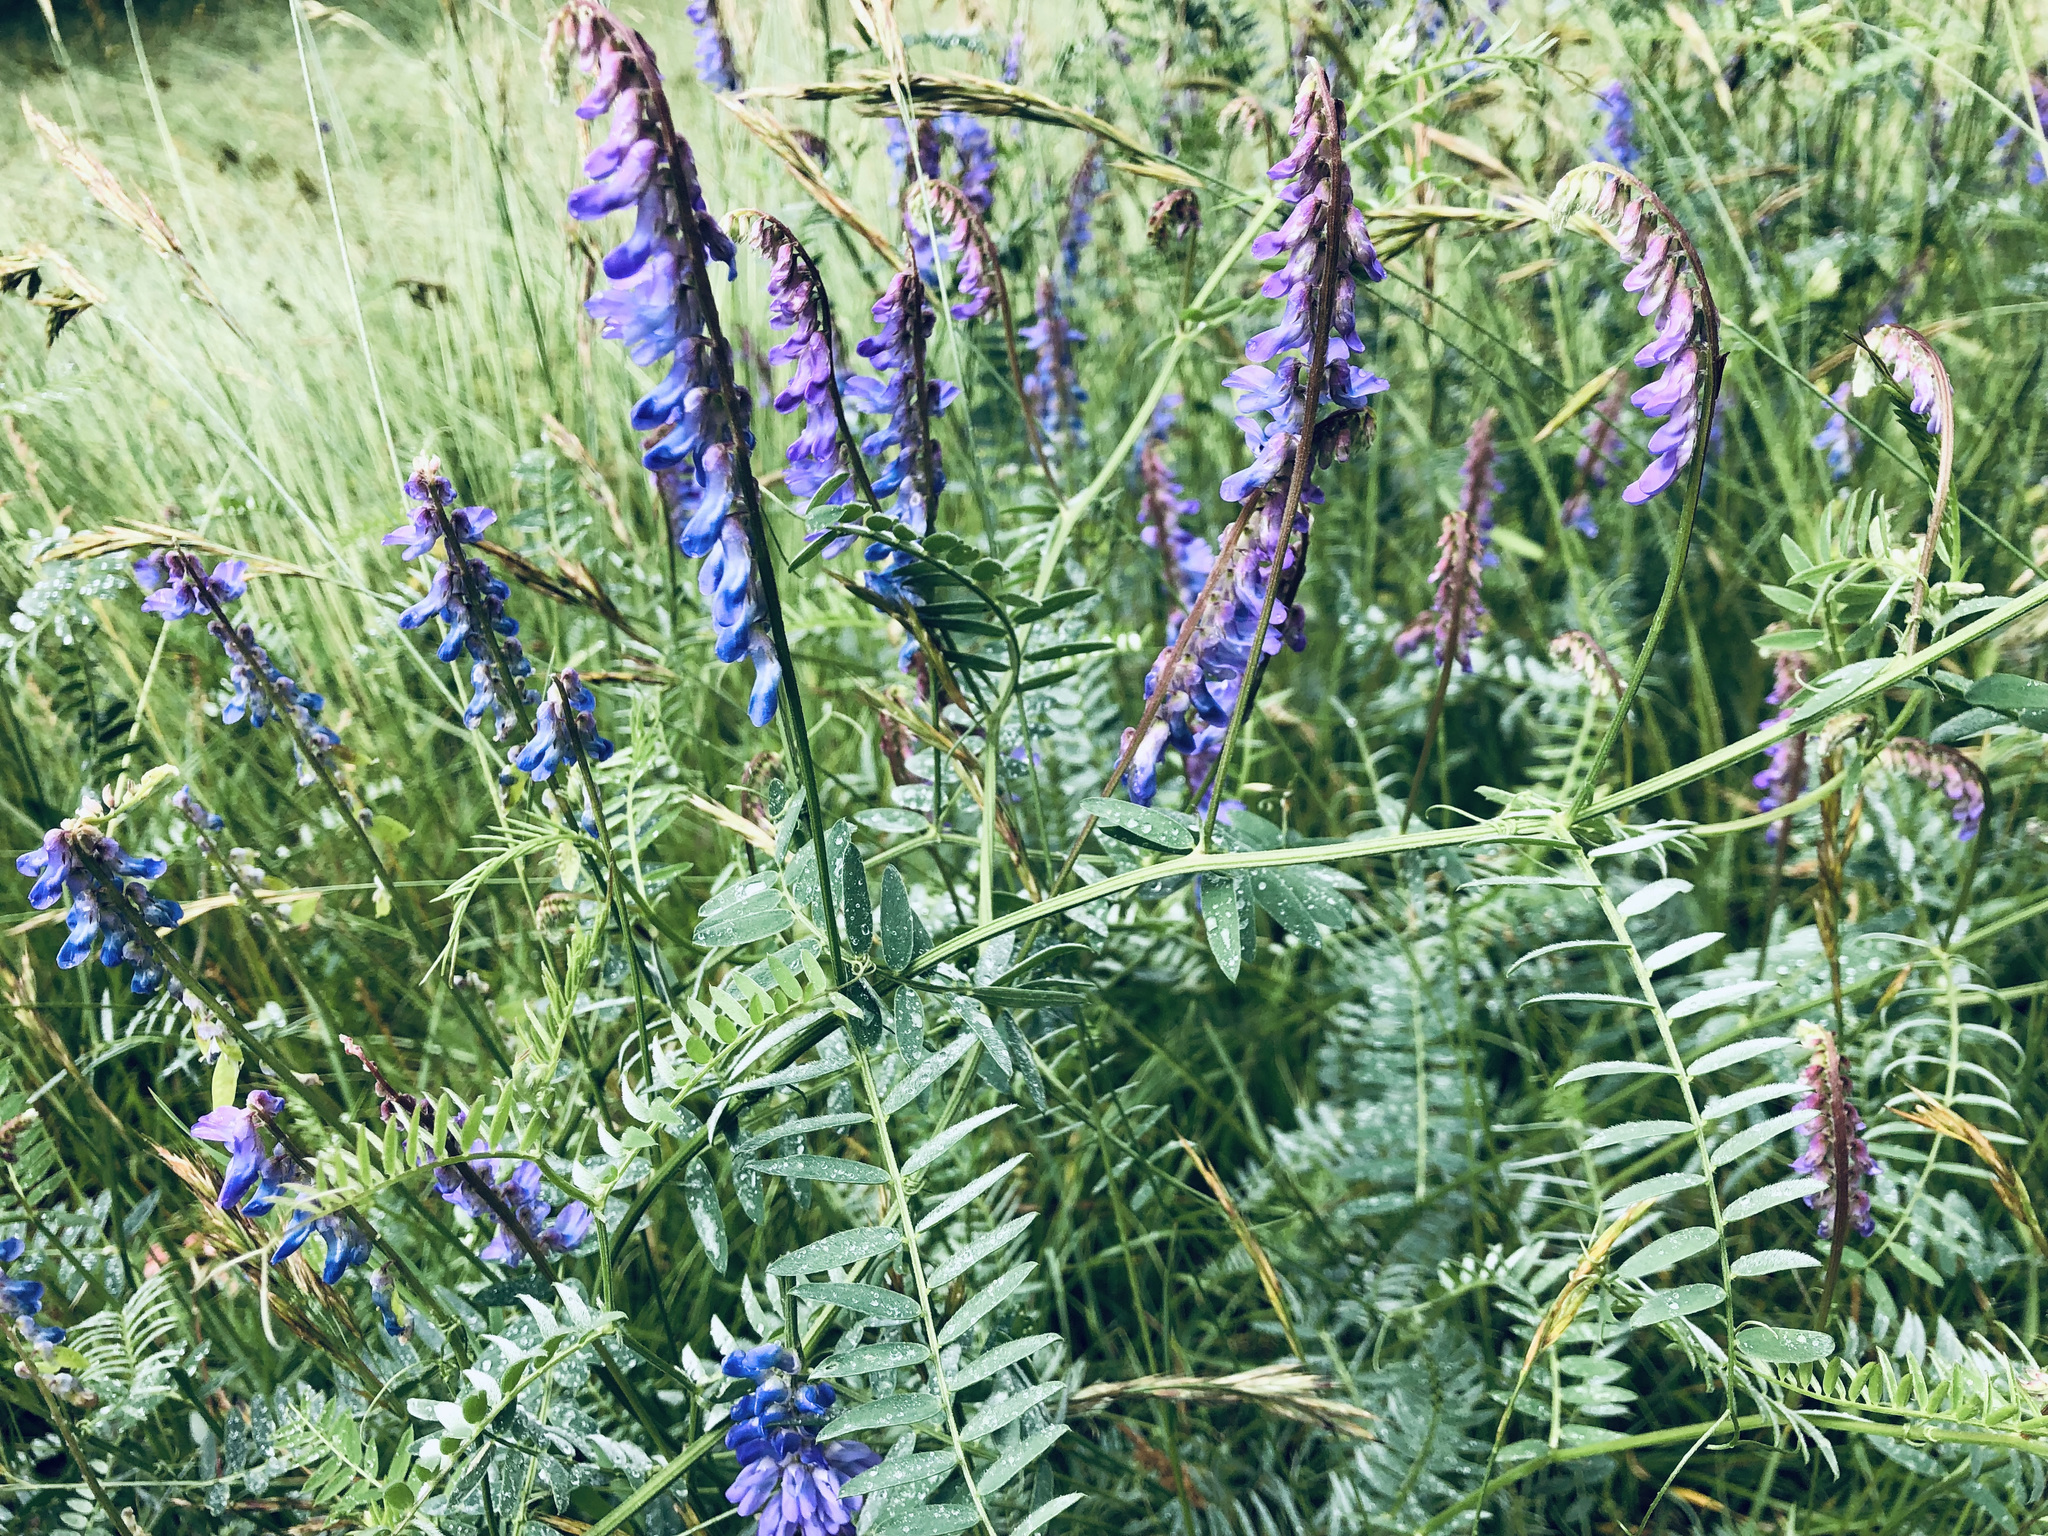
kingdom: Plantae
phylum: Tracheophyta
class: Magnoliopsida
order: Fabales
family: Fabaceae
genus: Vicia
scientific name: Vicia cracca
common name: Bird vetch
